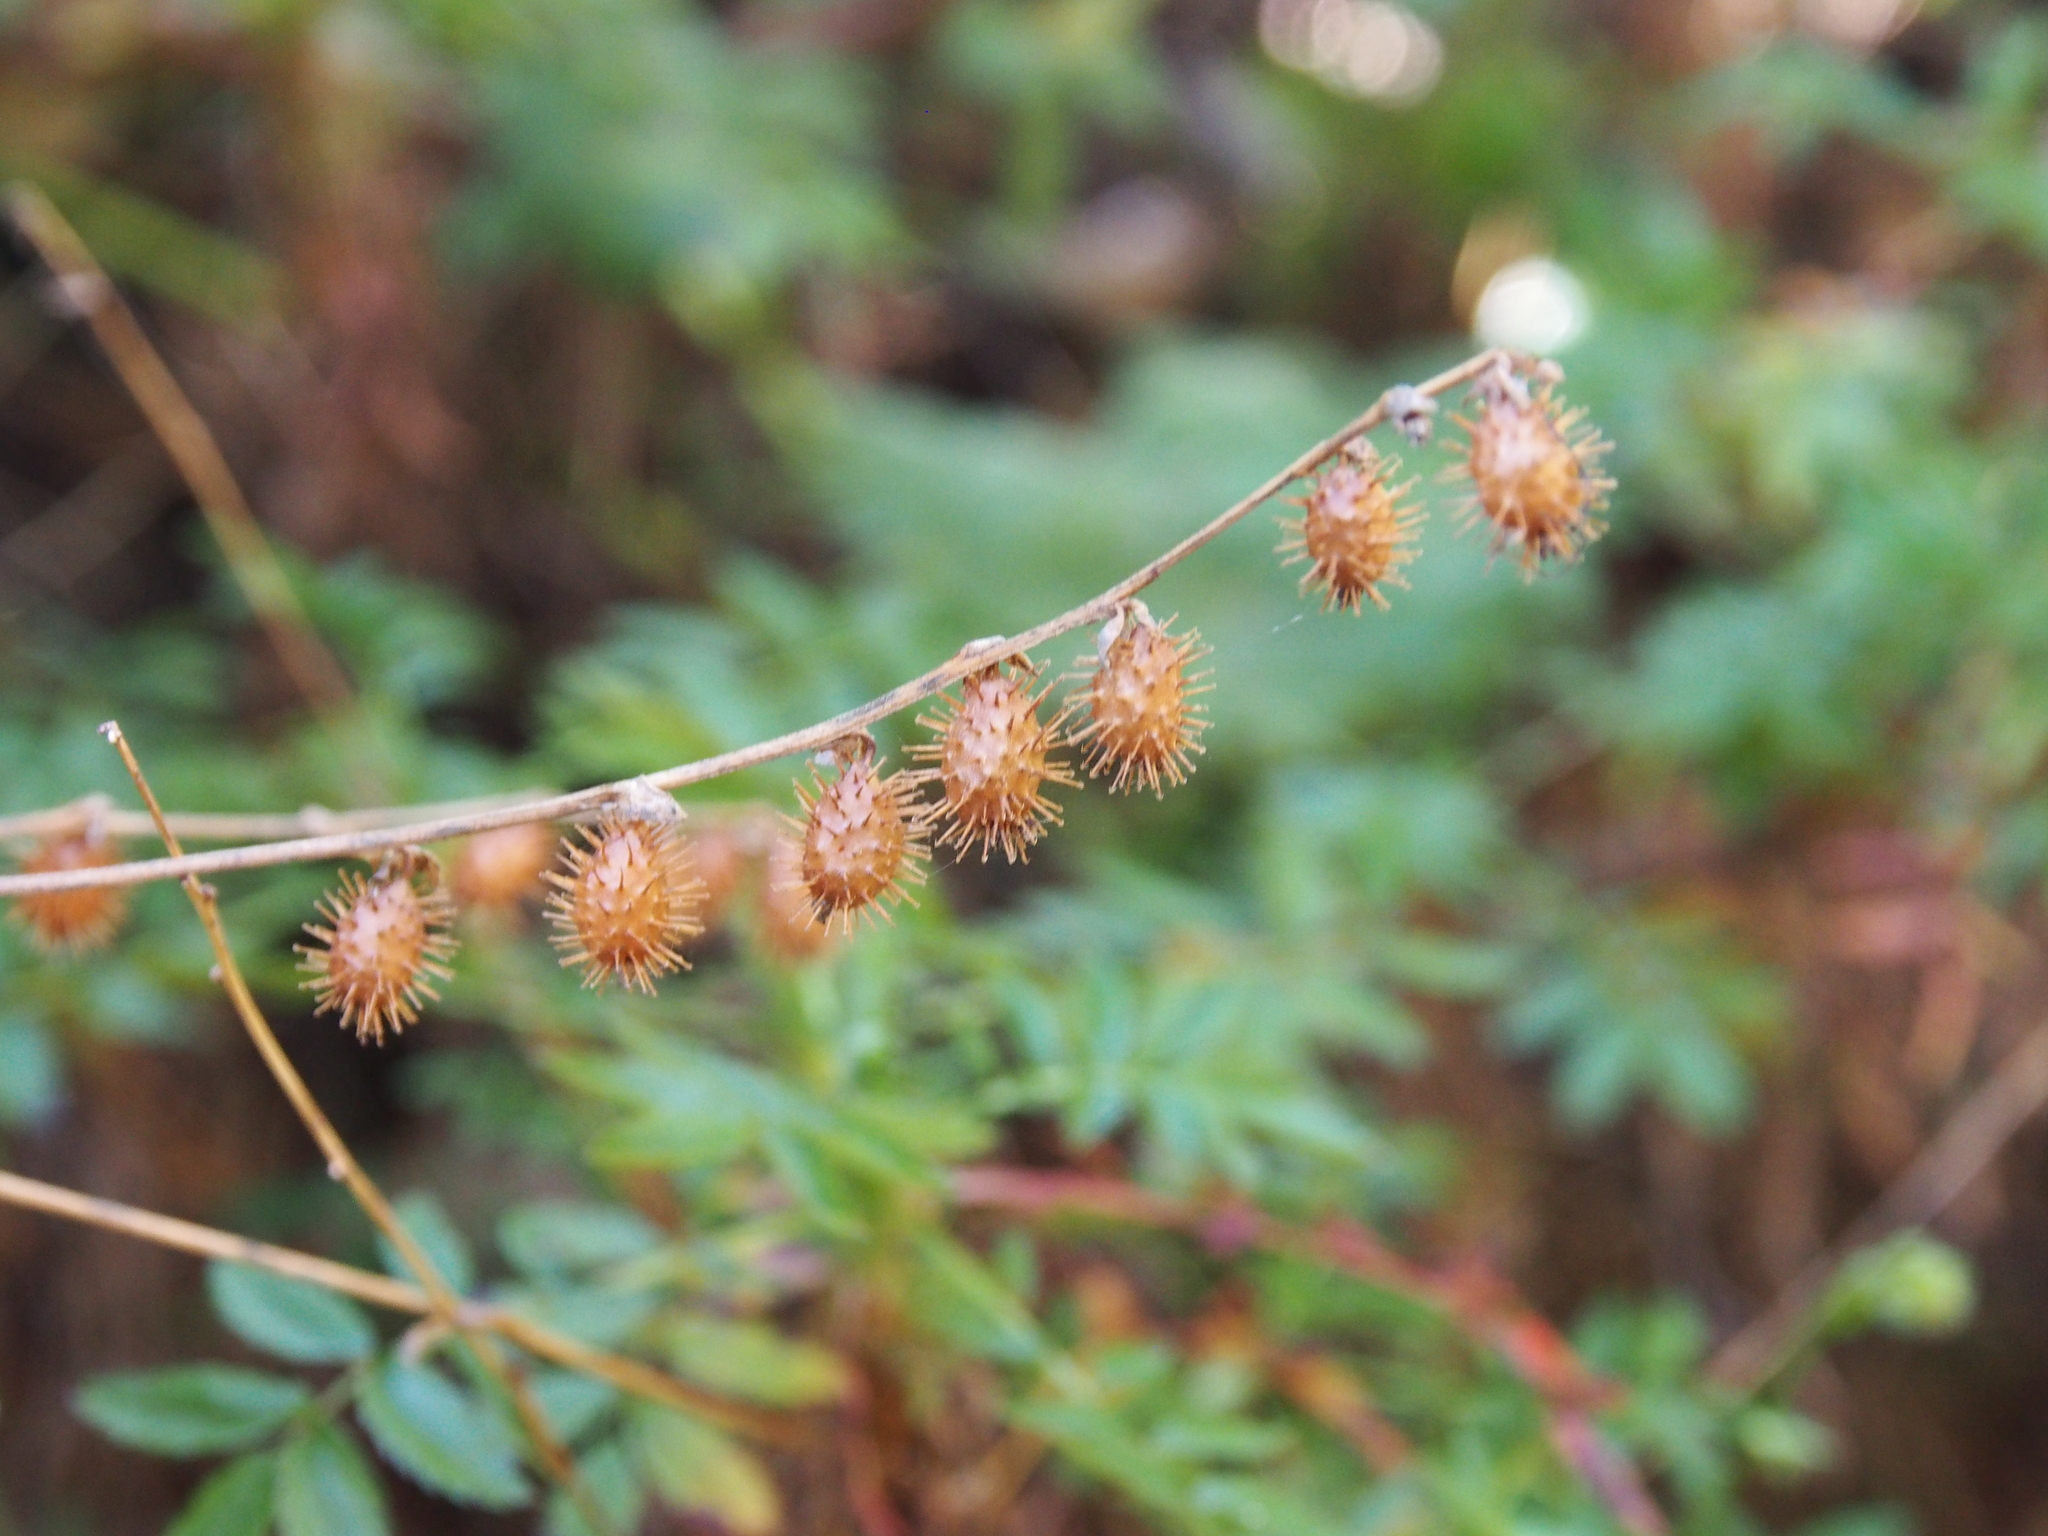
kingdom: Plantae
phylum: Tracheophyta
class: Magnoliopsida
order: Rosales
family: Rosaceae
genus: Acaena
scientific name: Acaena elongata
